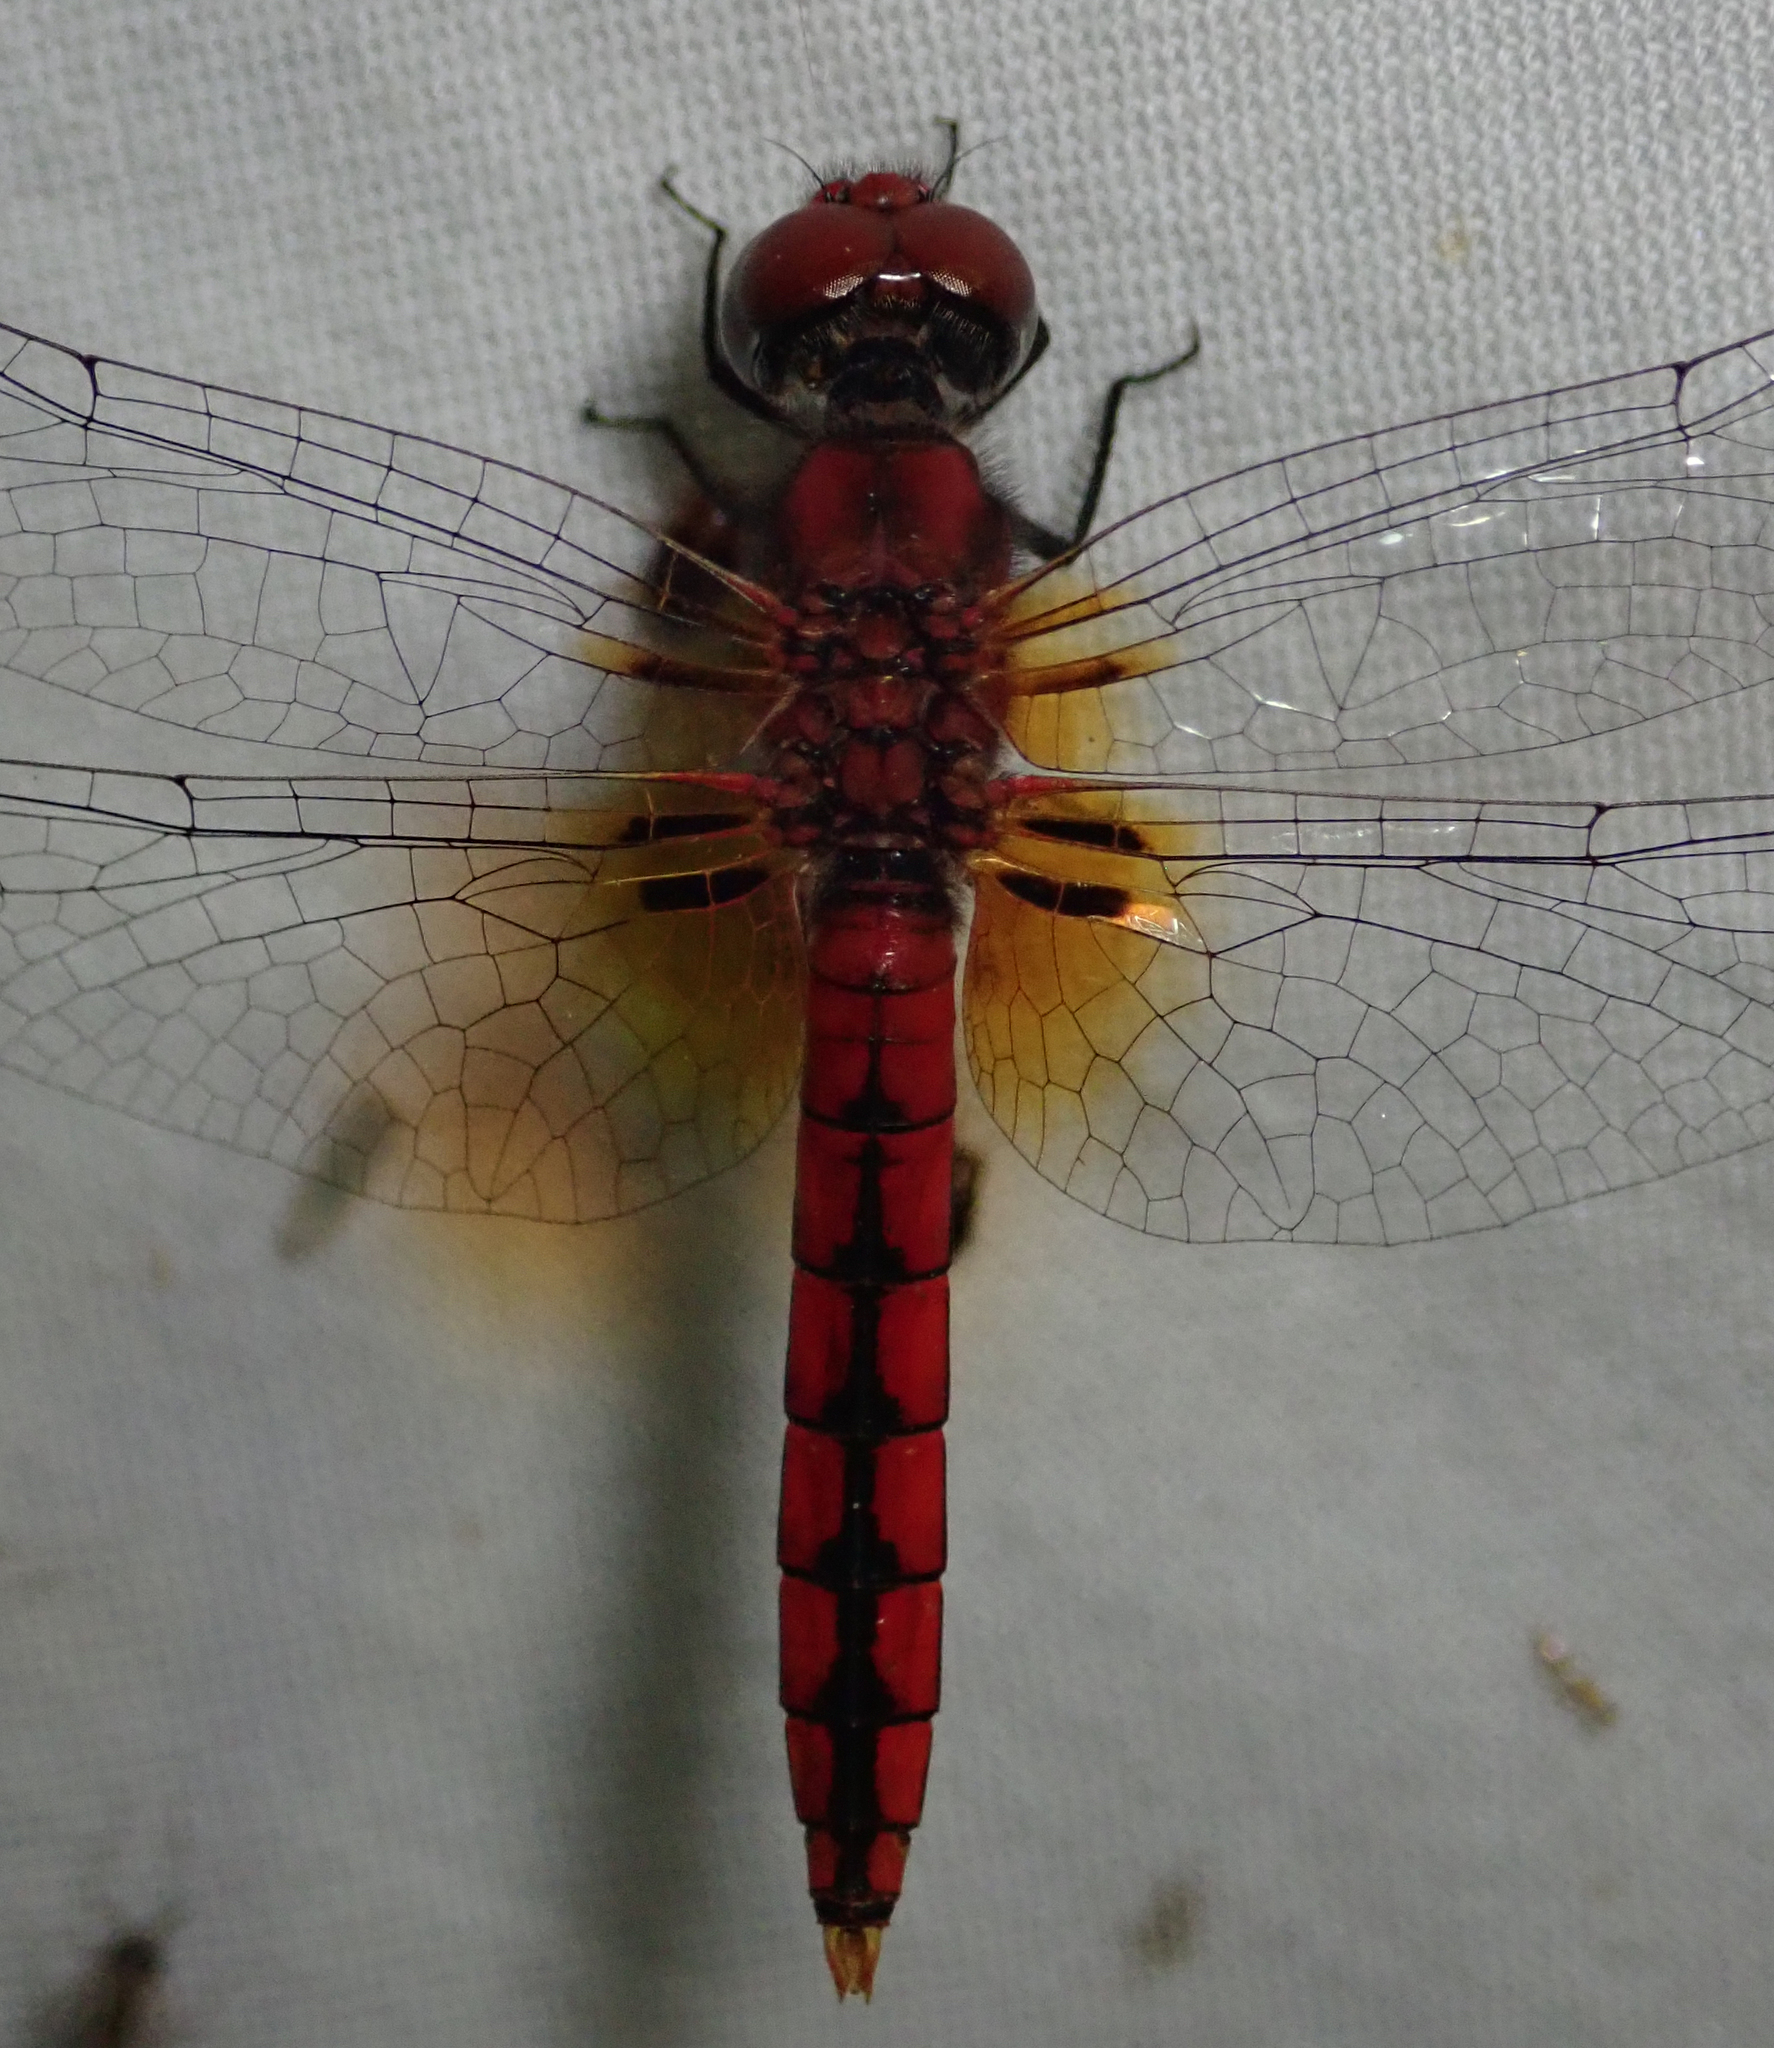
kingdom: Animalia
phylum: Arthropoda
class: Insecta
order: Odonata
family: Libellulidae
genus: Aethriamanta
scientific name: Aethriamanta rezia
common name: Pygmy basker
